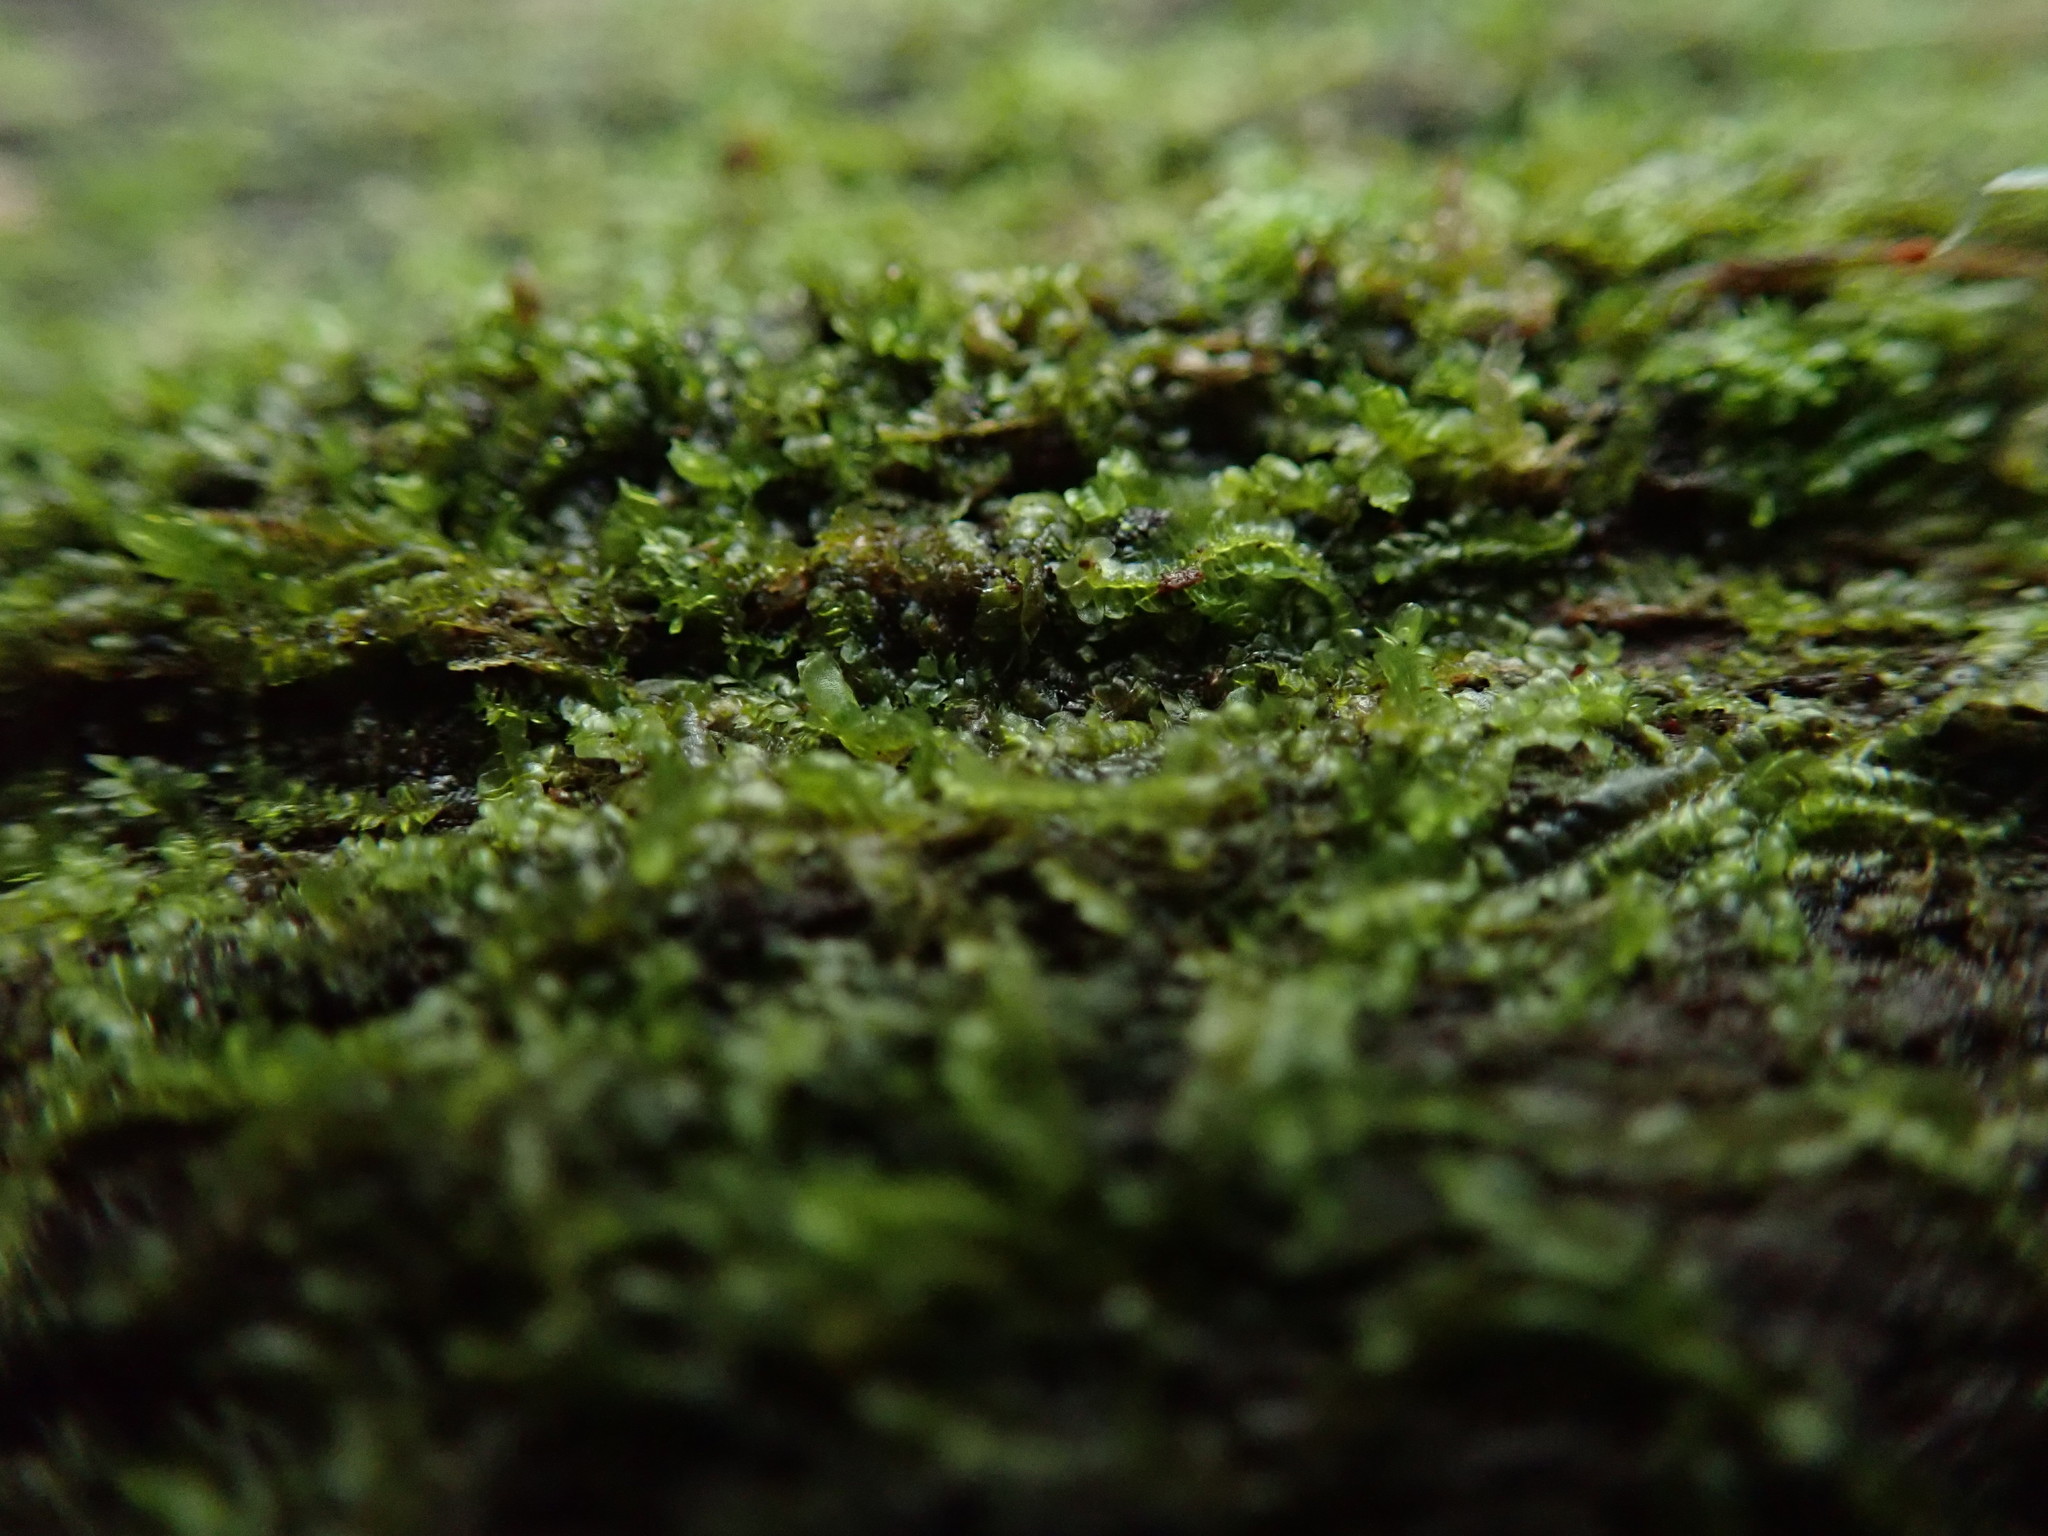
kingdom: Plantae
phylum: Marchantiophyta
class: Jungermanniopsida
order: Jungermanniales
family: Lophocoleaceae
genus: Lophocolea
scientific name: Lophocolea heterophylla
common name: Variable-leaved crestwort
